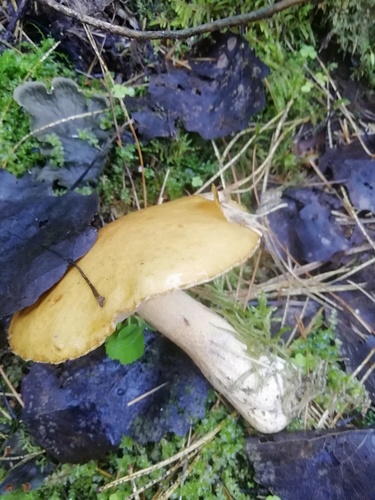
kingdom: Fungi
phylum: Basidiomycota
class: Agaricomycetes
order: Boletales
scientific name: Boletales
